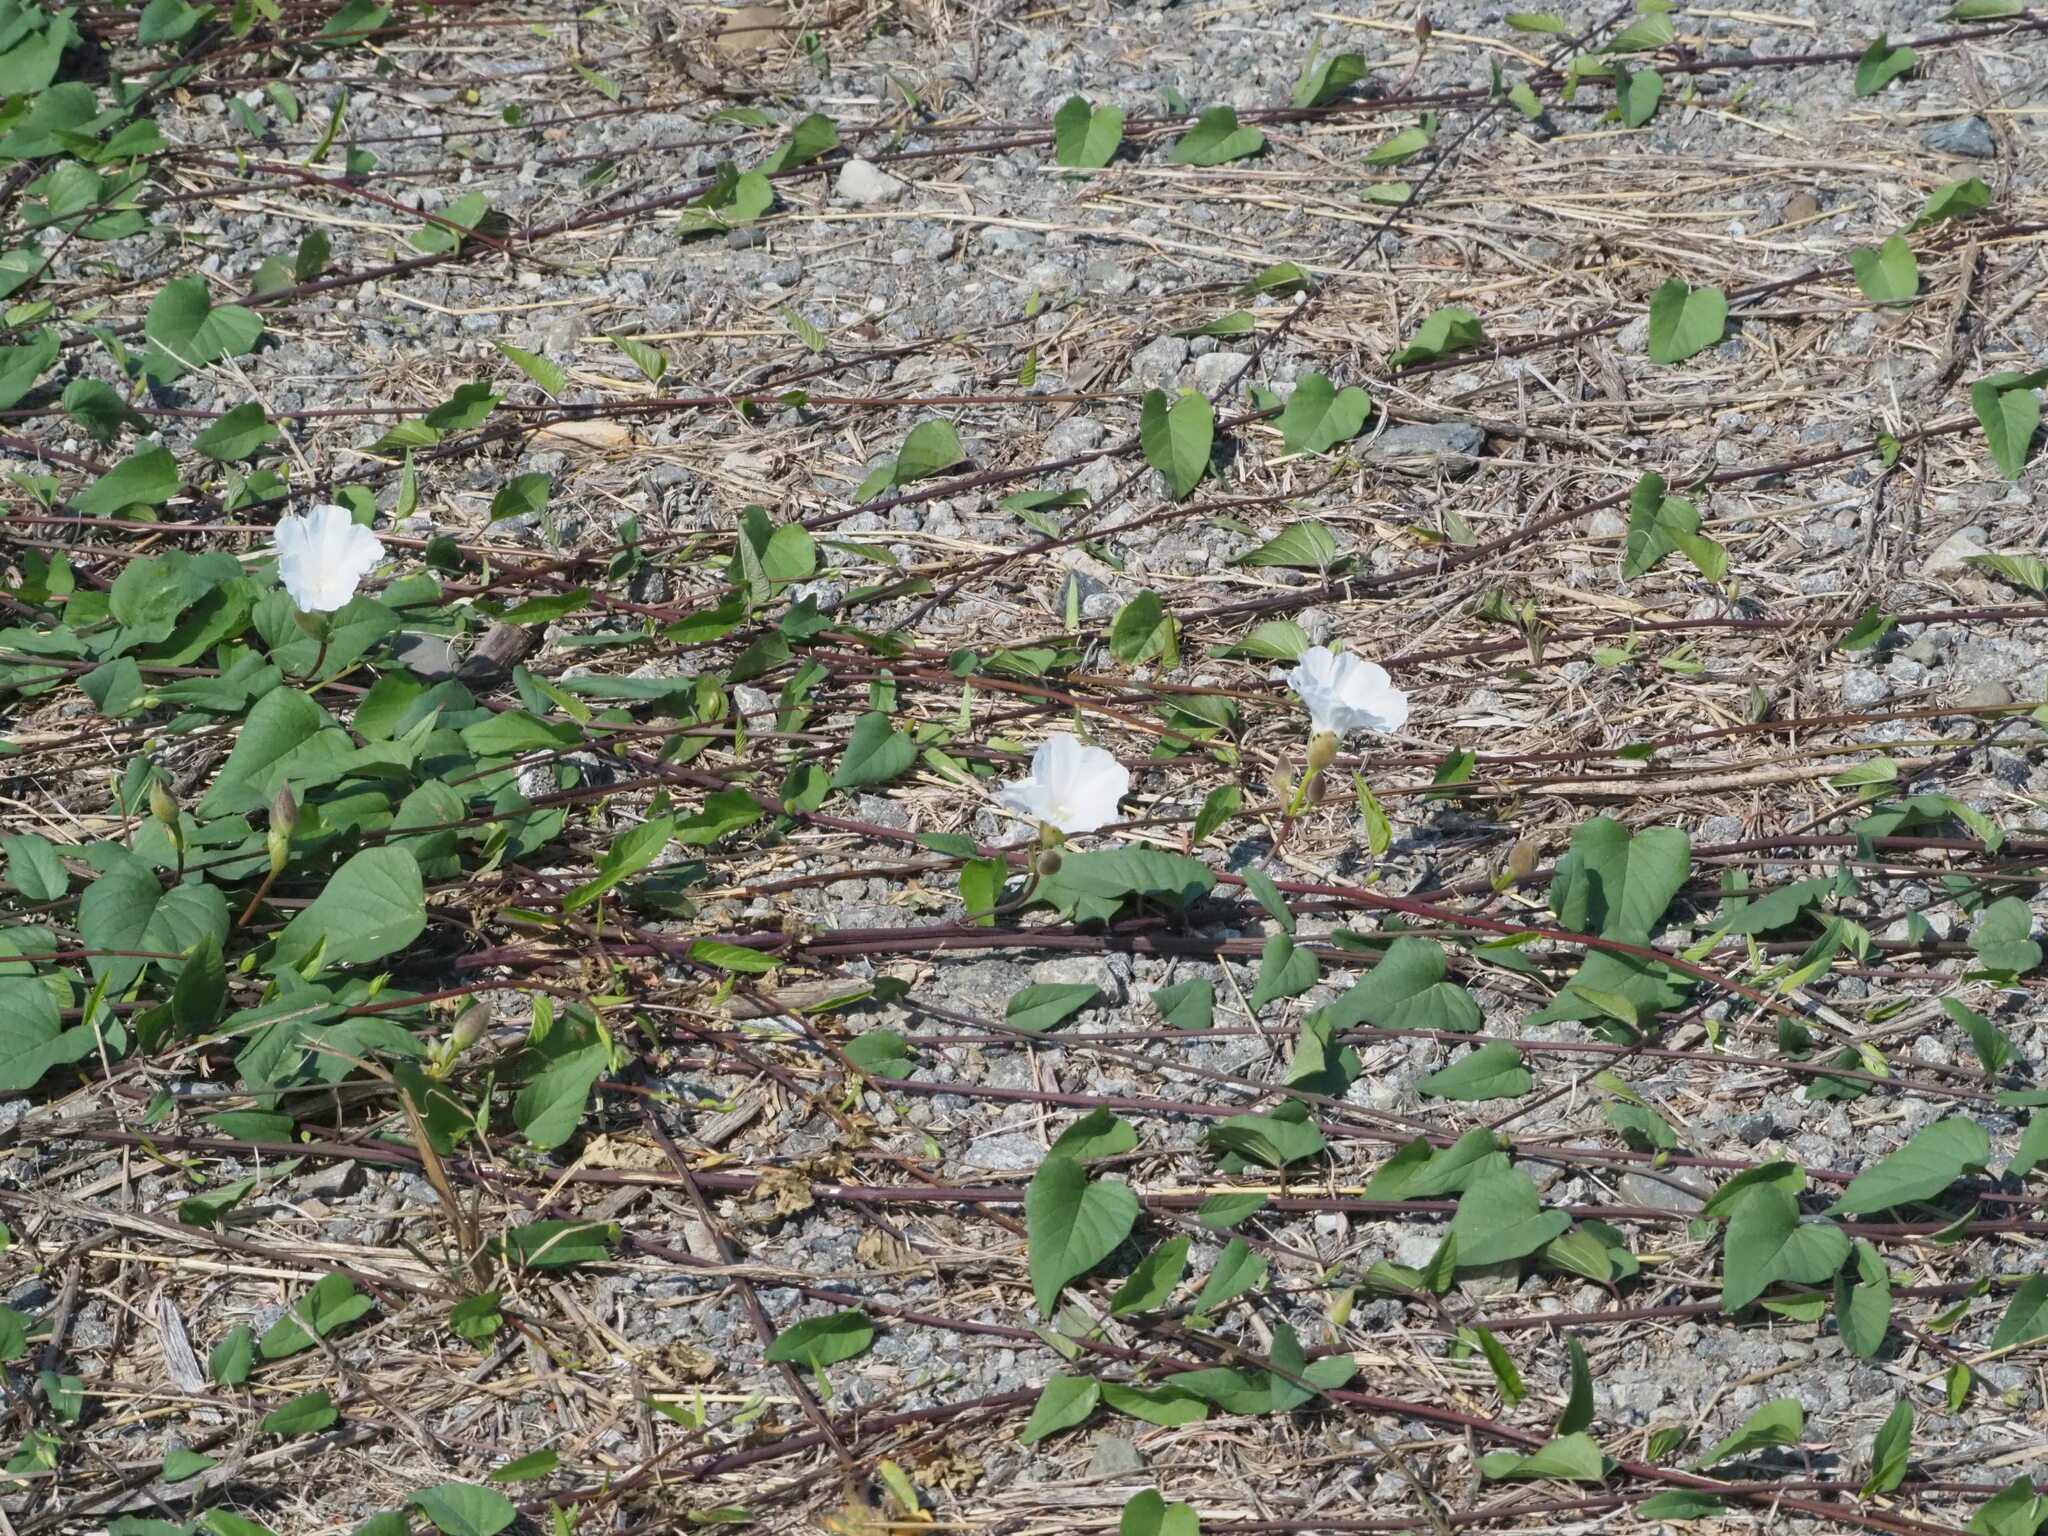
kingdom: Plantae
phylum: Tracheophyta
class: Magnoliopsida
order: Solanales
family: Convolvulaceae
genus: Operculina
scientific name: Operculina turpethum
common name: Transparent wood-rose
